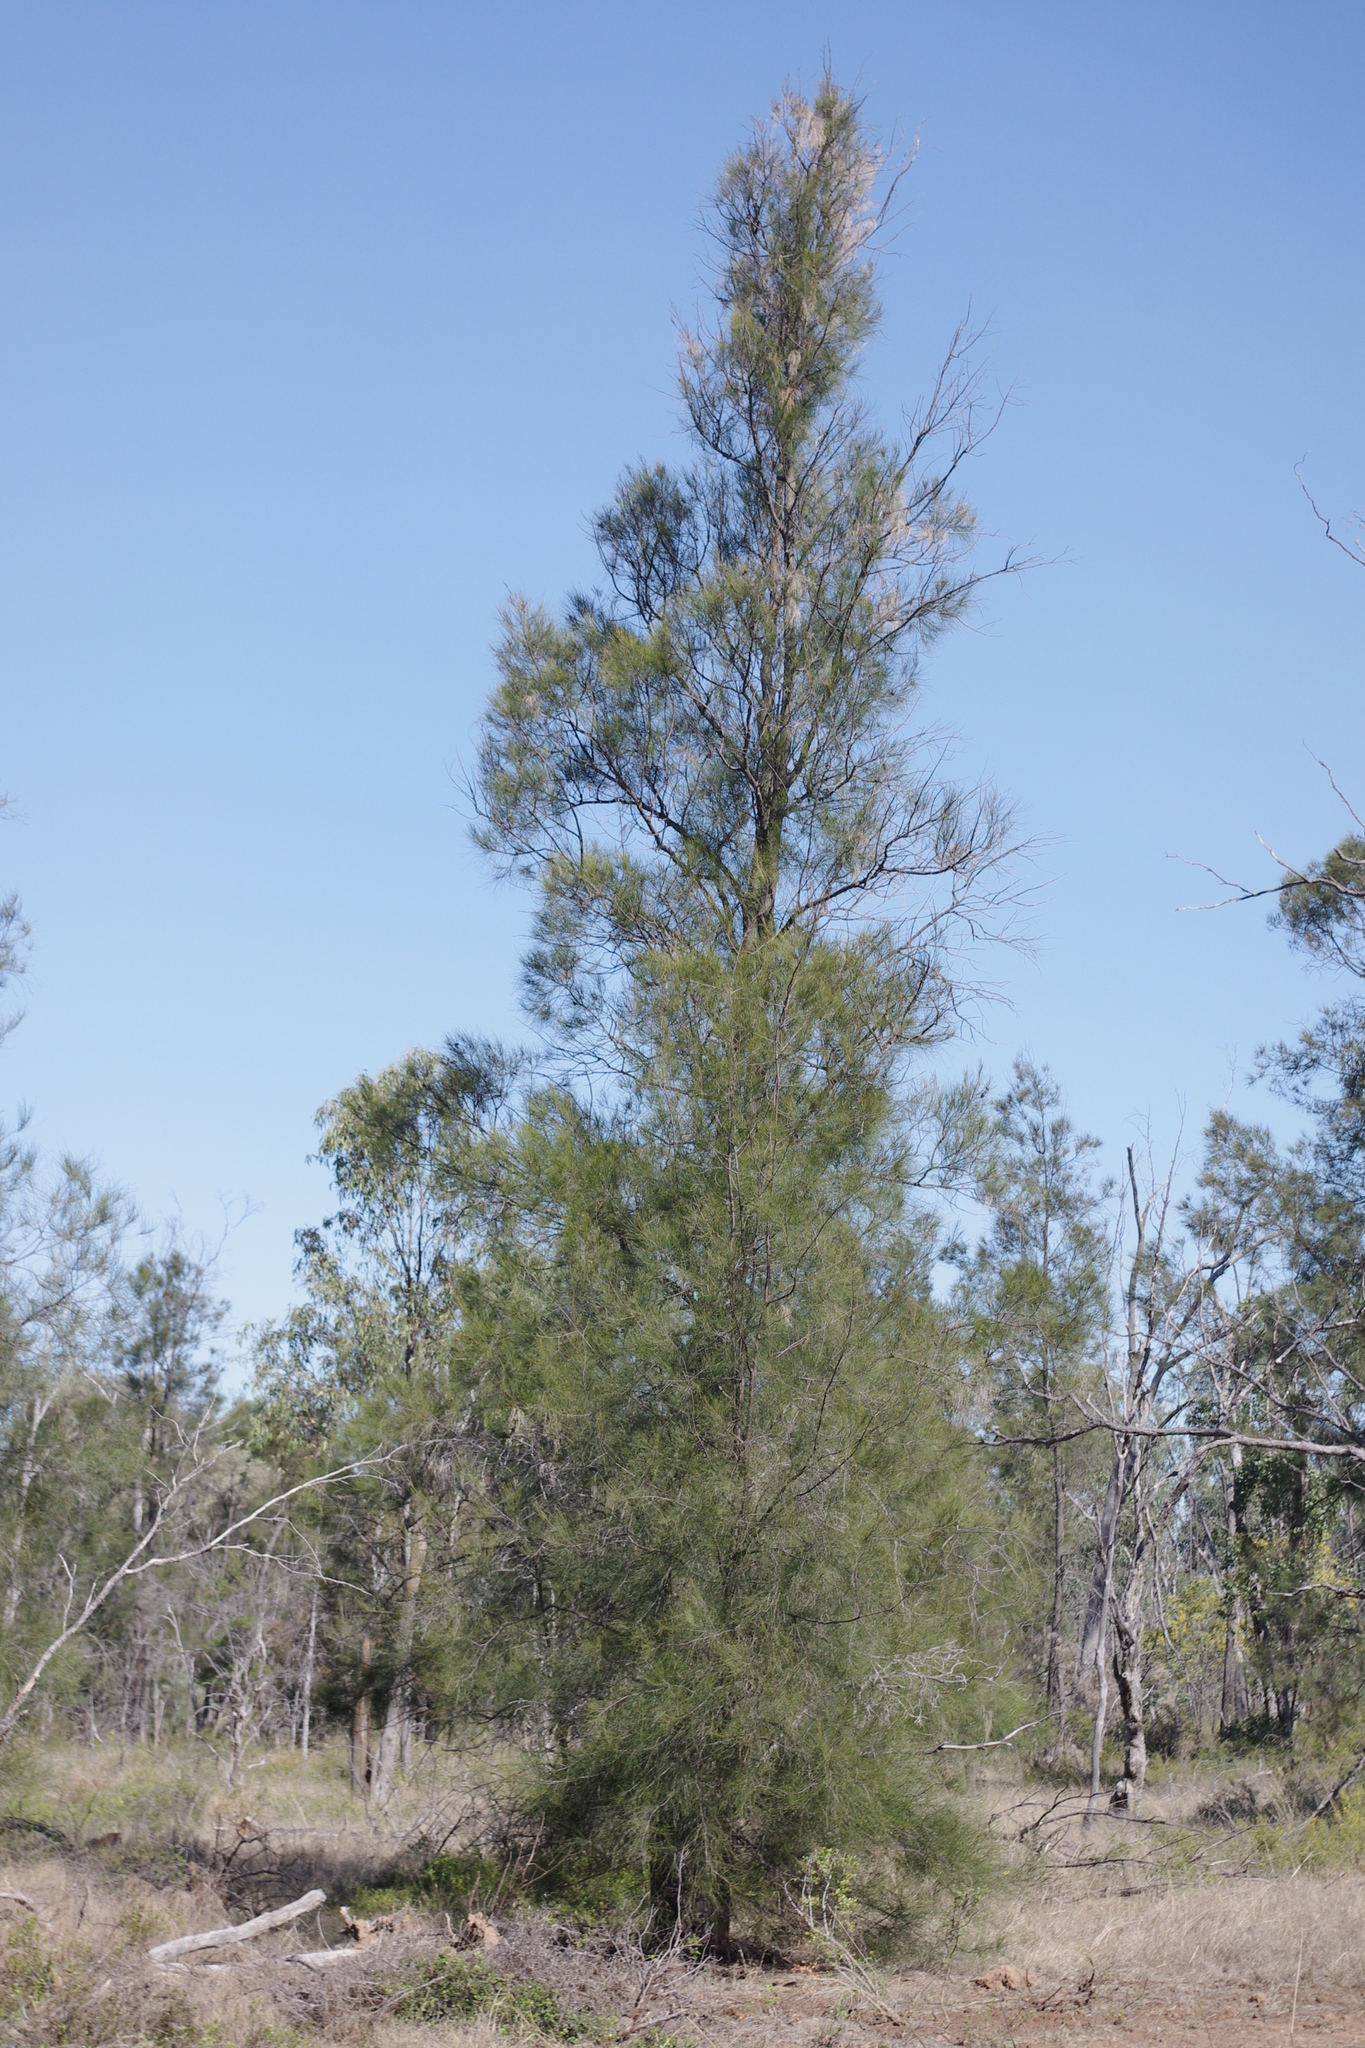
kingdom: Plantae
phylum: Tracheophyta
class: Magnoliopsida
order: Fagales
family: Casuarinaceae
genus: Casuarina
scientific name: Casuarina cristata
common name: Black-oak
